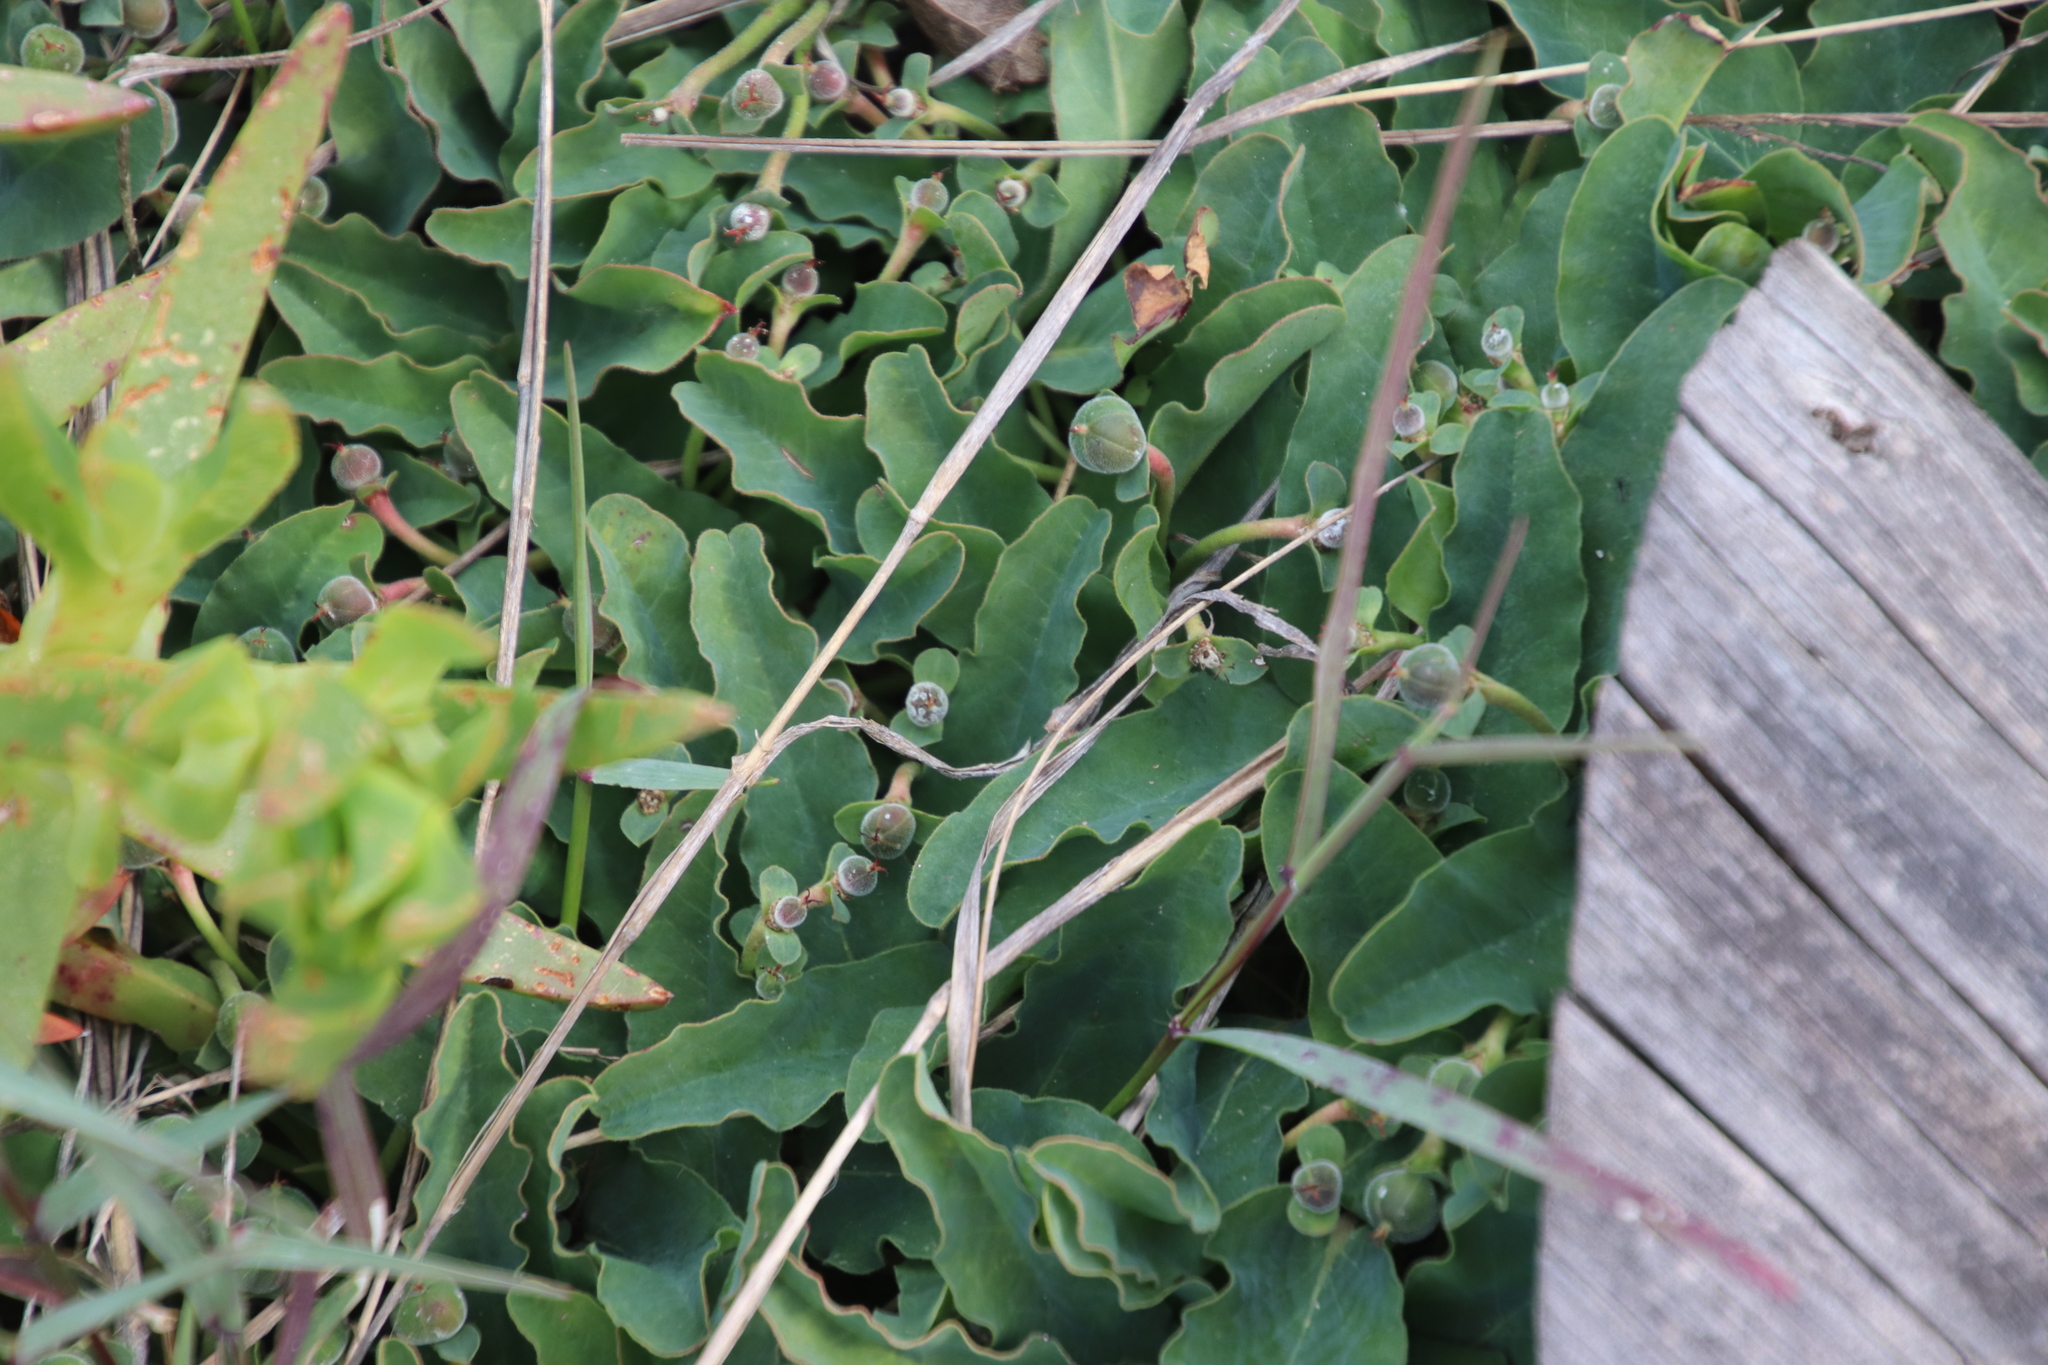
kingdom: Plantae
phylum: Tracheophyta
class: Magnoliopsida
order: Malpighiales
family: Euphorbiaceae
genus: Euphorbia
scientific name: Euphorbia tuberosa
